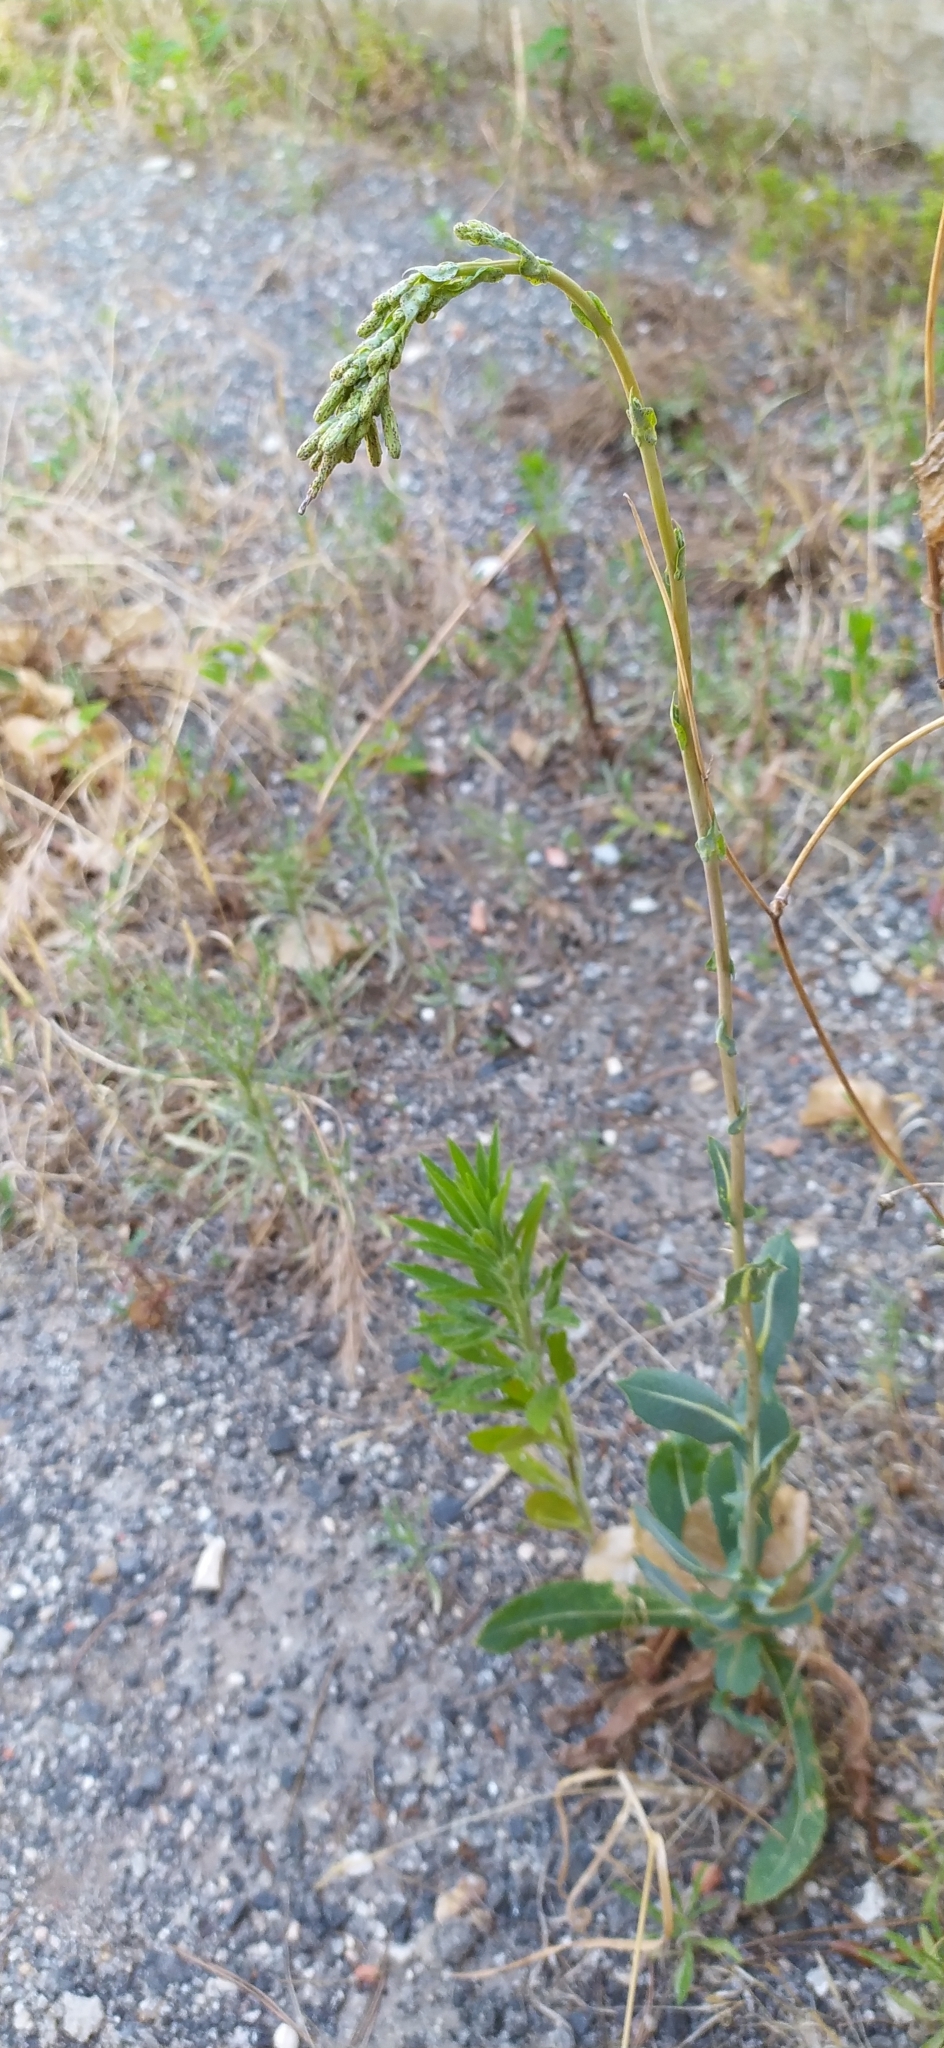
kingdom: Plantae
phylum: Tracheophyta
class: Magnoliopsida
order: Asterales
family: Asteraceae
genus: Lactuca
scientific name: Lactuca serriola
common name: Prickly lettuce
